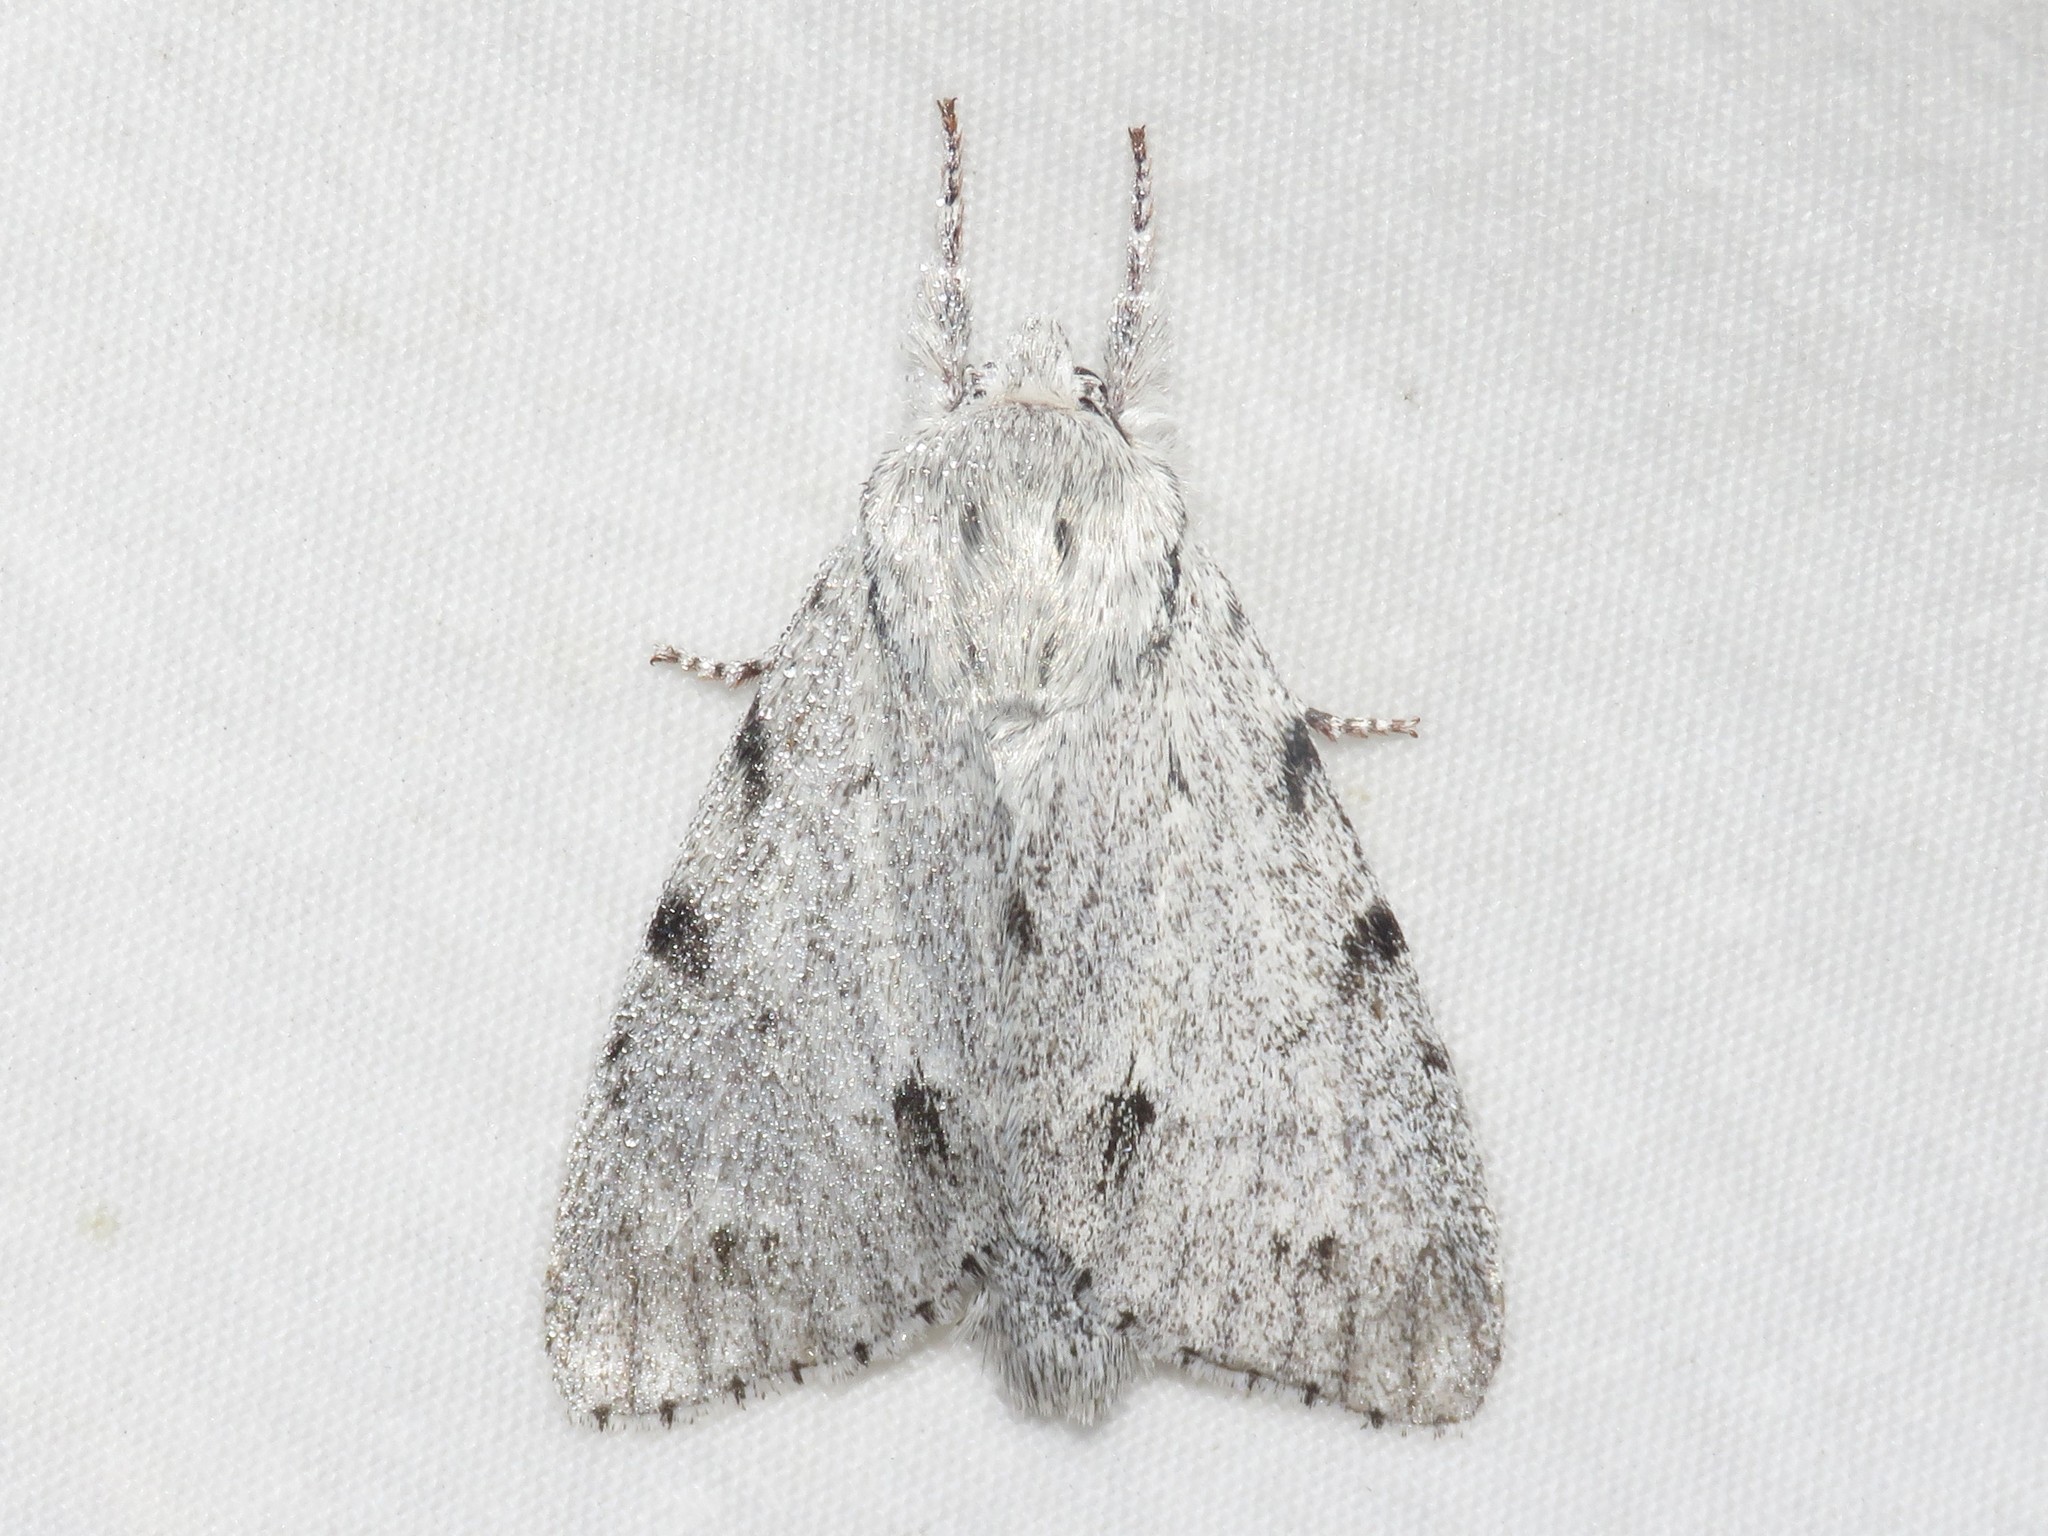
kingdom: Animalia
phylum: Arthropoda
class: Insecta
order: Lepidoptera
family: Noctuidae
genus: Acronicta
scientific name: Acronicta lepusculina
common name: Cottonwood dagger
